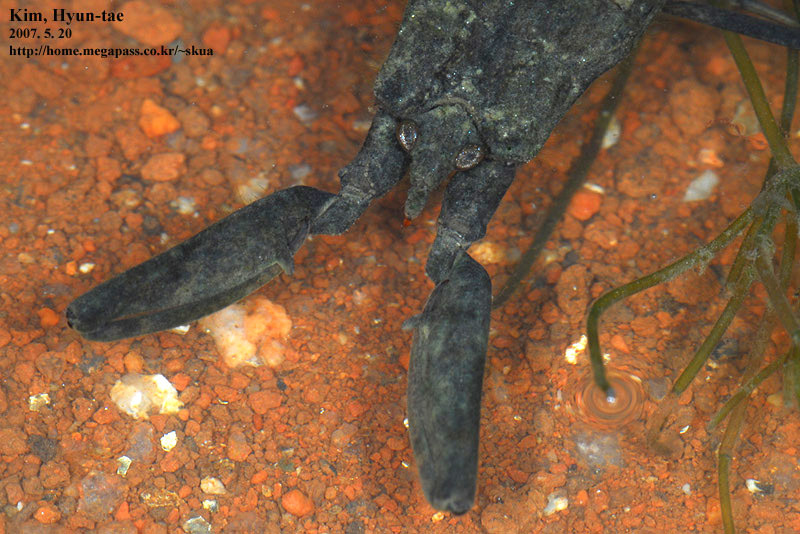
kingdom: Animalia
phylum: Arthropoda
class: Insecta
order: Hemiptera
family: Nepidae
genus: Laccotrephes
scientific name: Laccotrephes japonensis
